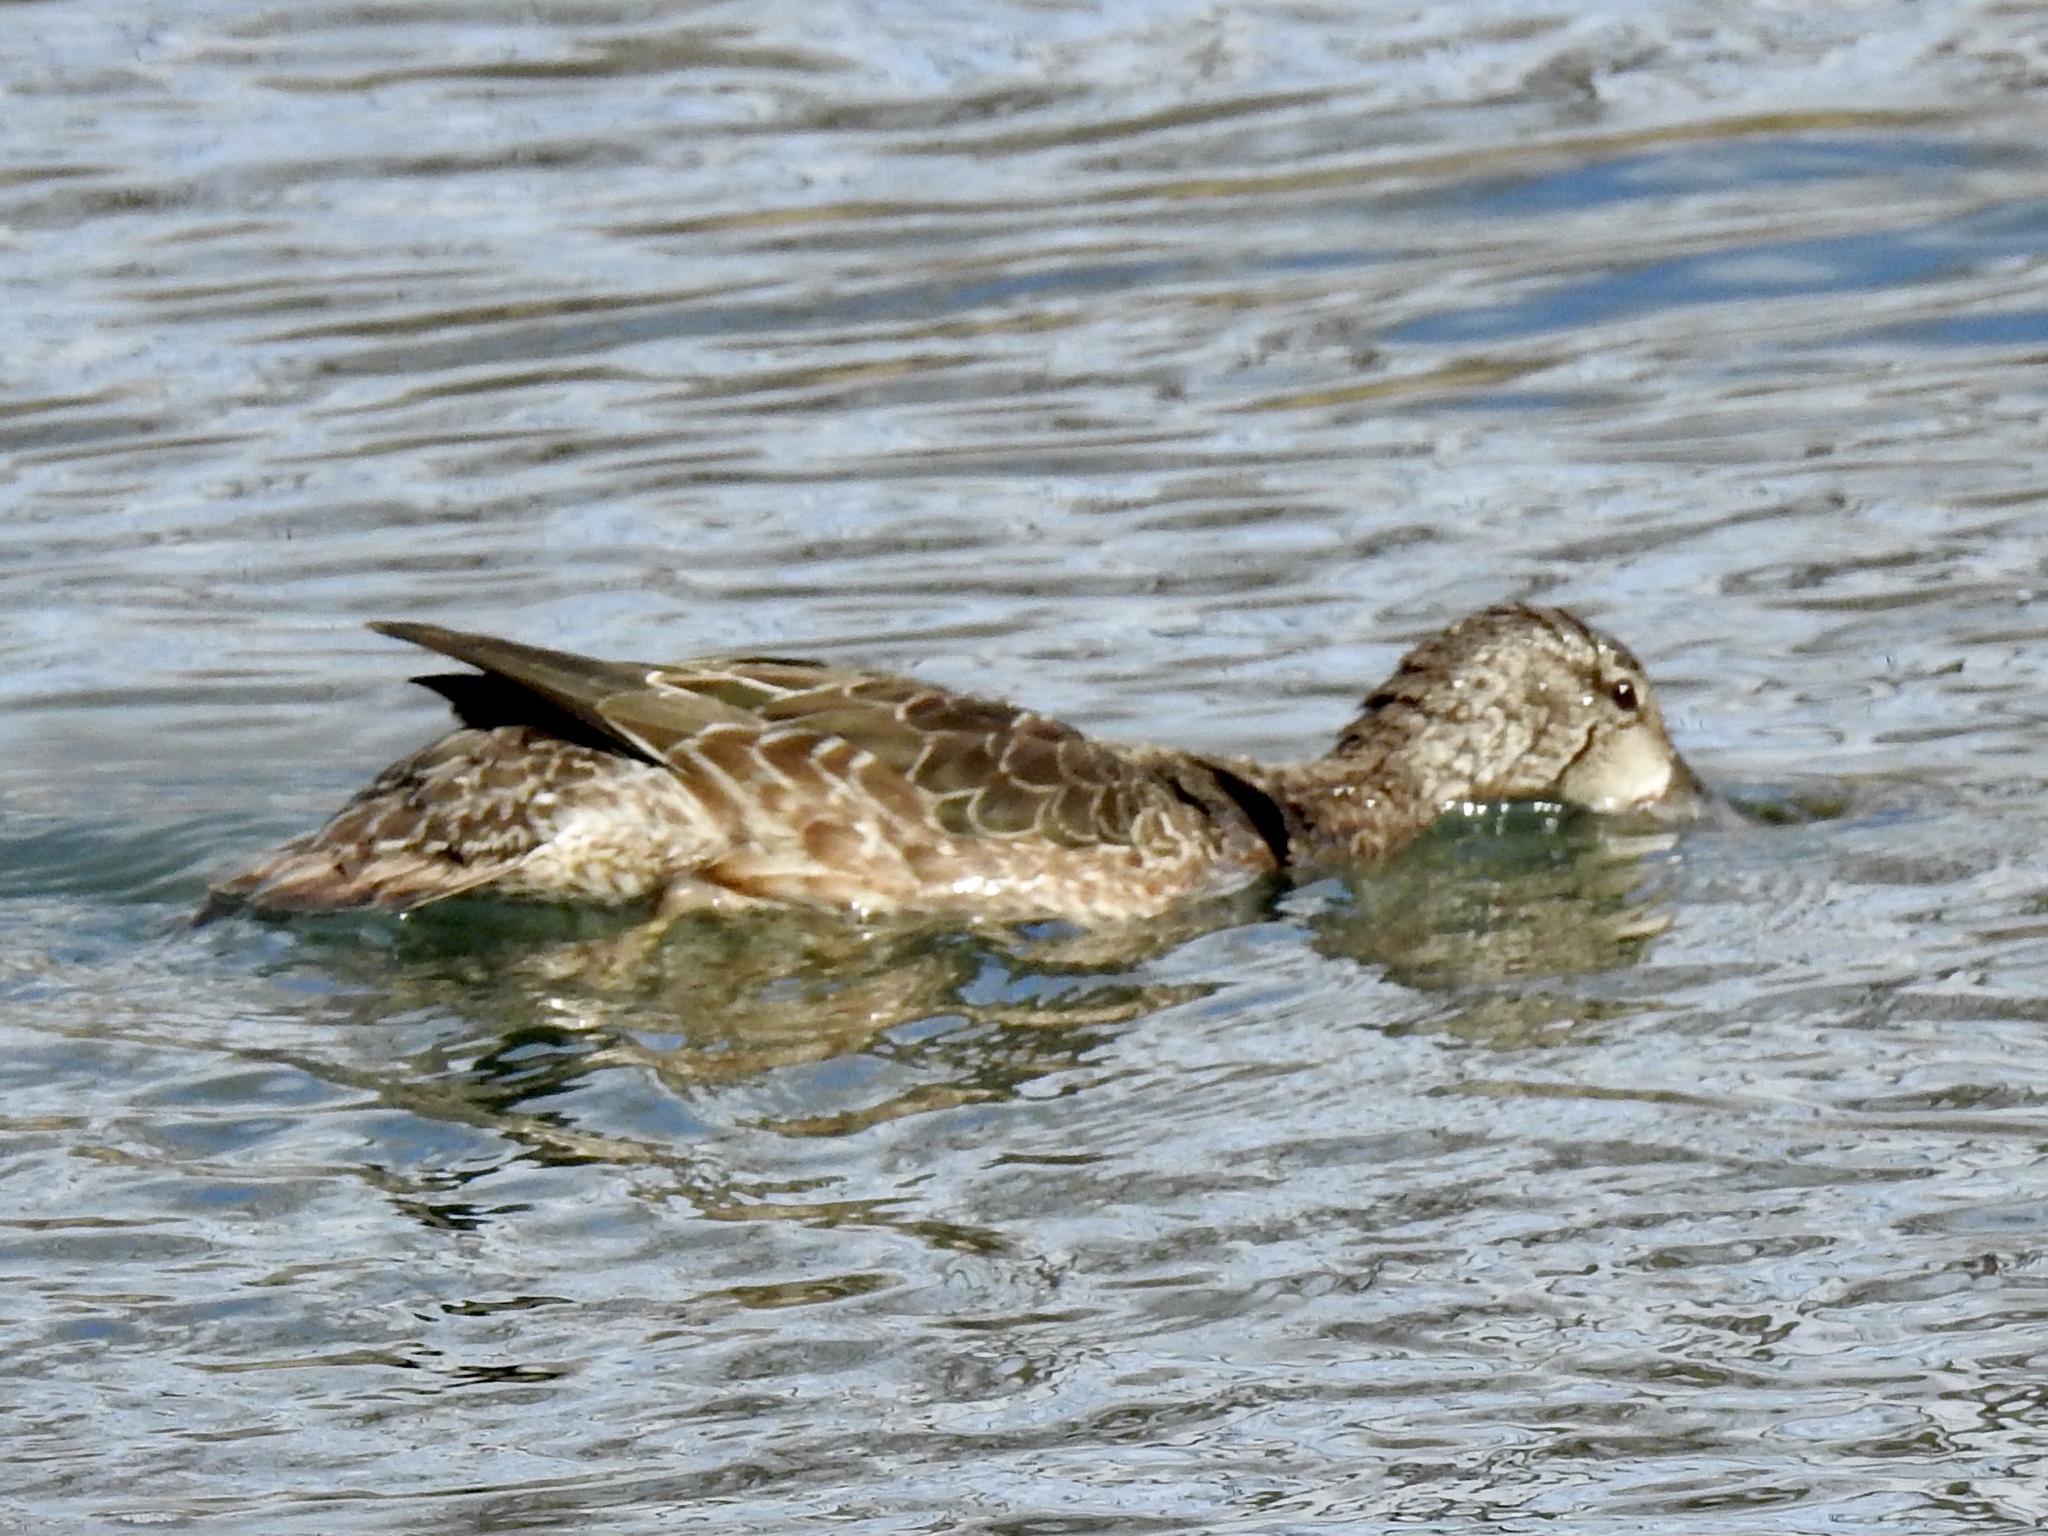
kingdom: Animalia
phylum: Chordata
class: Aves
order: Anseriformes
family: Anatidae
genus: Spatula
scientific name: Spatula discors
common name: Blue-winged teal
